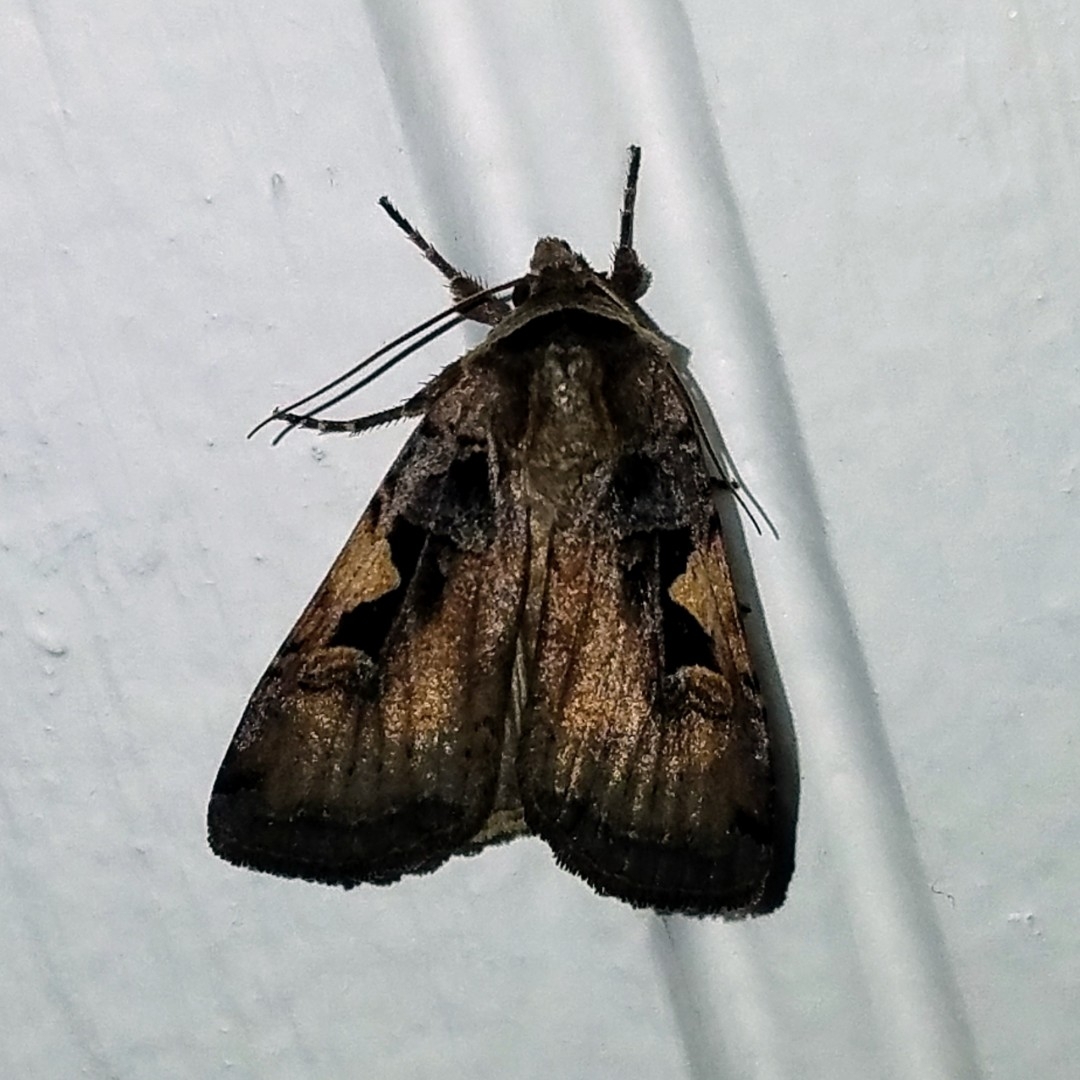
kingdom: Animalia
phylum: Arthropoda
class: Insecta
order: Lepidoptera
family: Noctuidae
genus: Xestia
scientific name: Xestia c-nigrum
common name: Setaceous hebrew character
